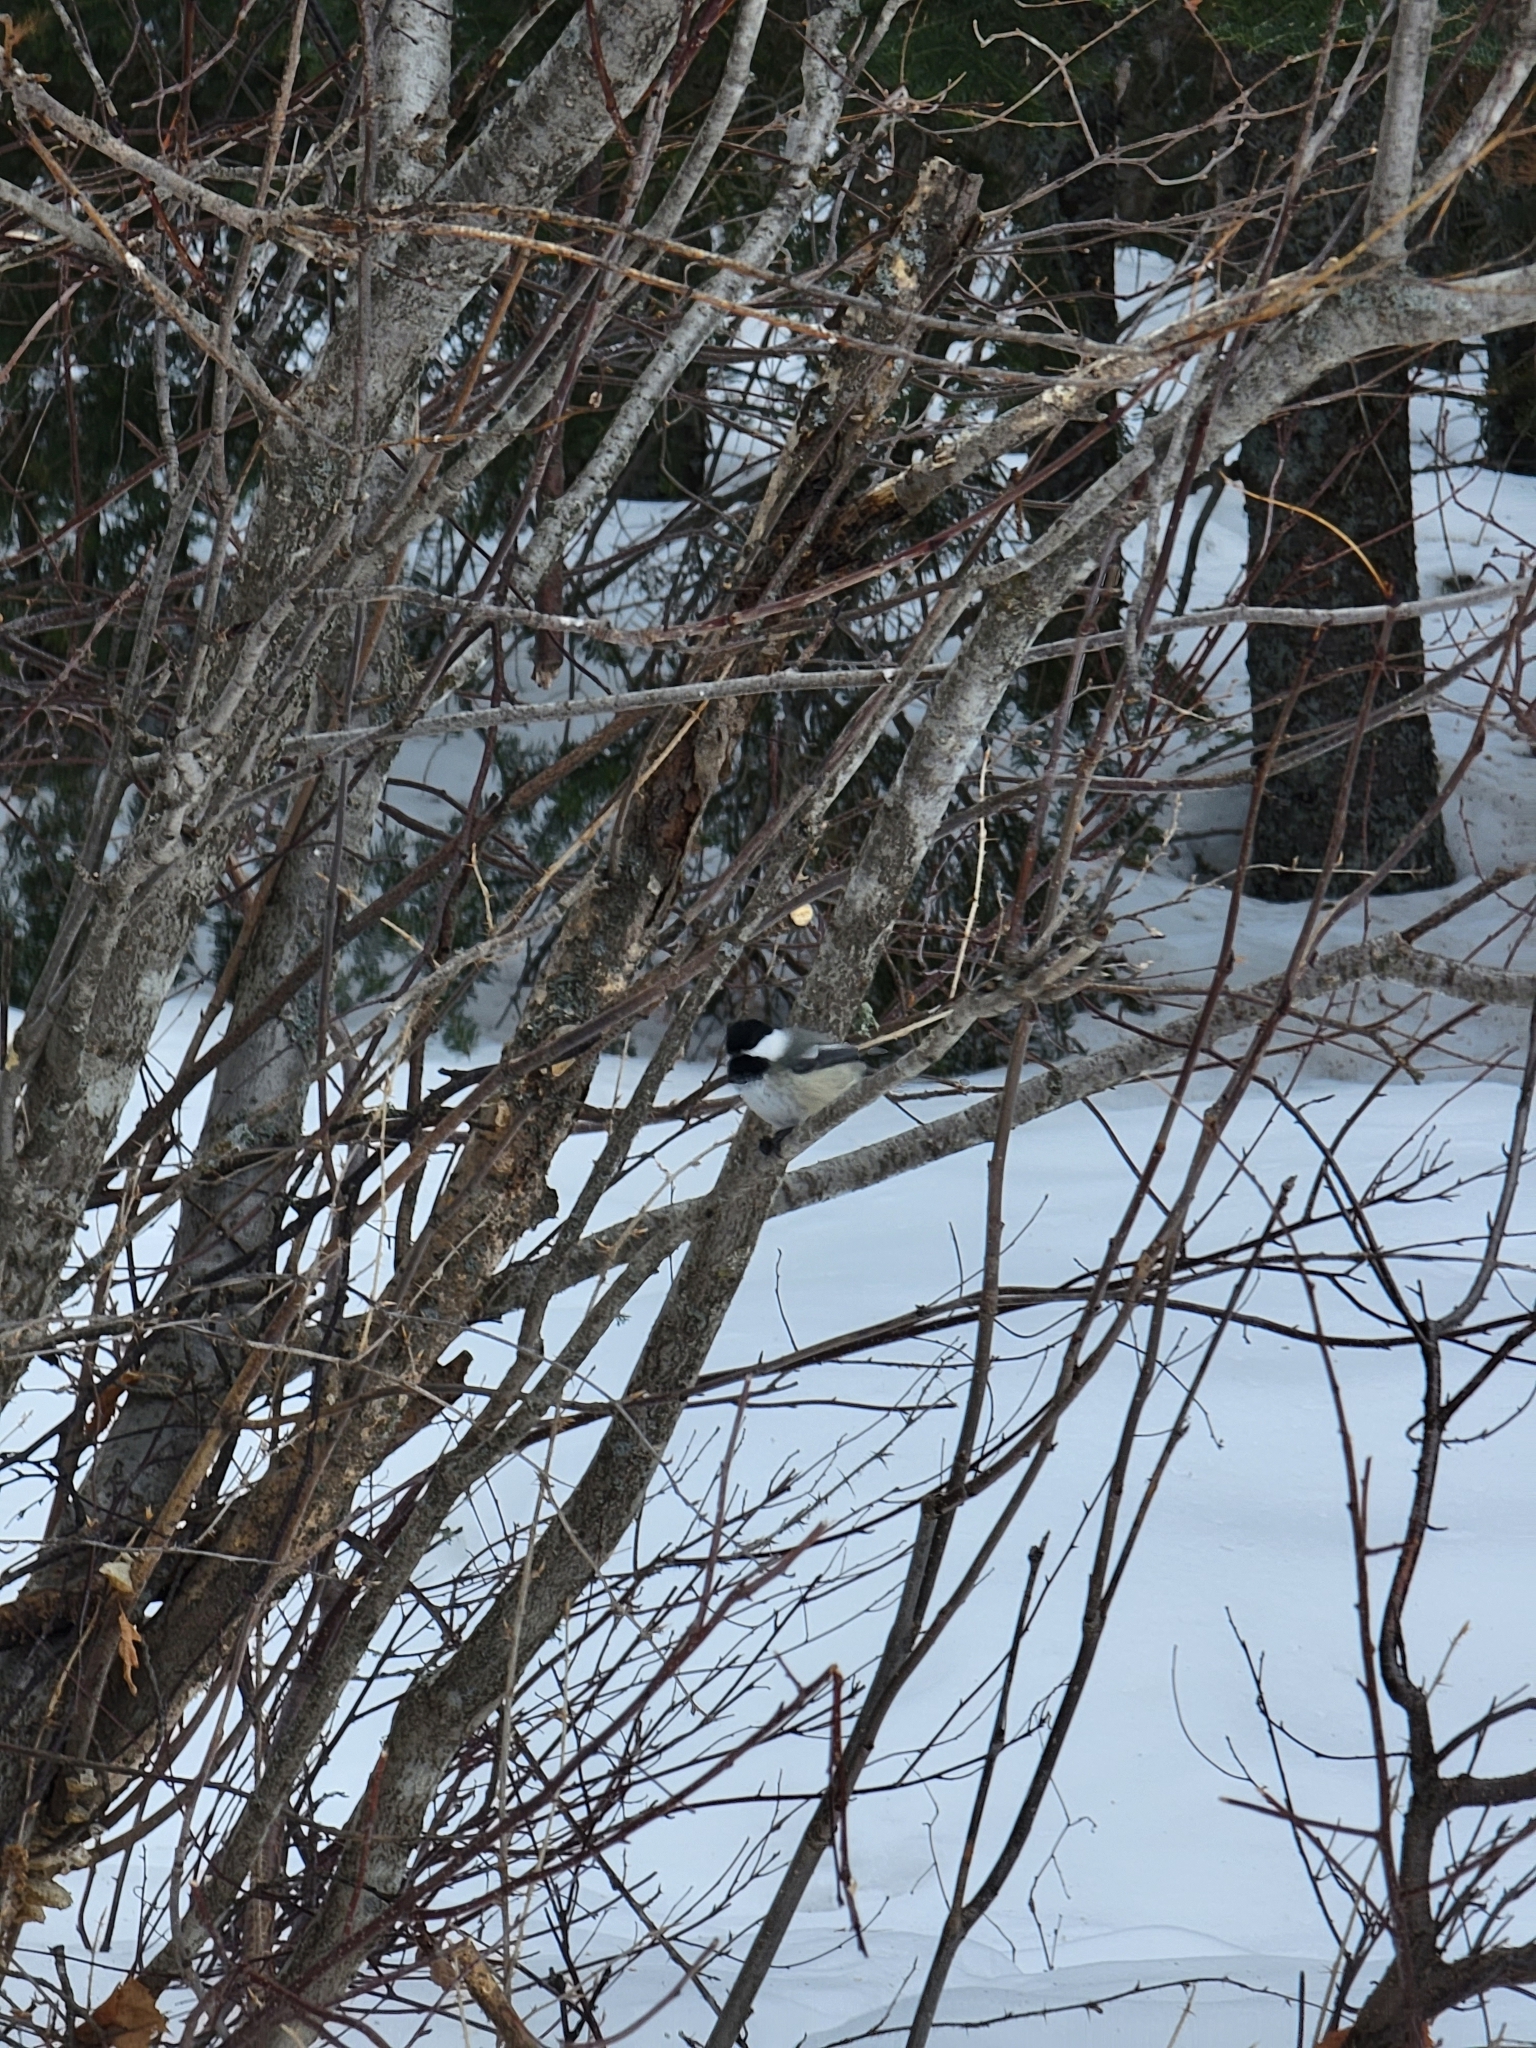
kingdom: Animalia
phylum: Chordata
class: Aves
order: Passeriformes
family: Paridae
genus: Poecile
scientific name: Poecile atricapillus
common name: Black-capped chickadee
